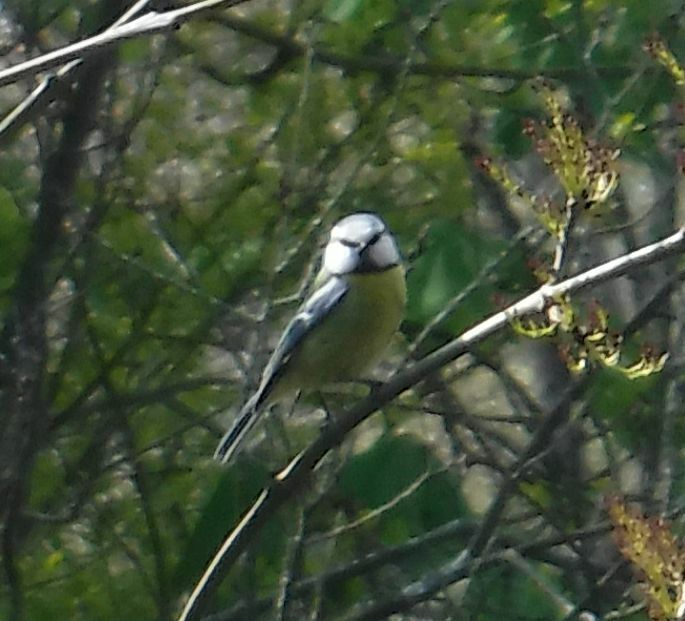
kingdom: Animalia
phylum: Chordata
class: Aves
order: Passeriformes
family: Paridae
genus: Cyanistes
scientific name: Cyanistes caeruleus
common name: Eurasian blue tit
